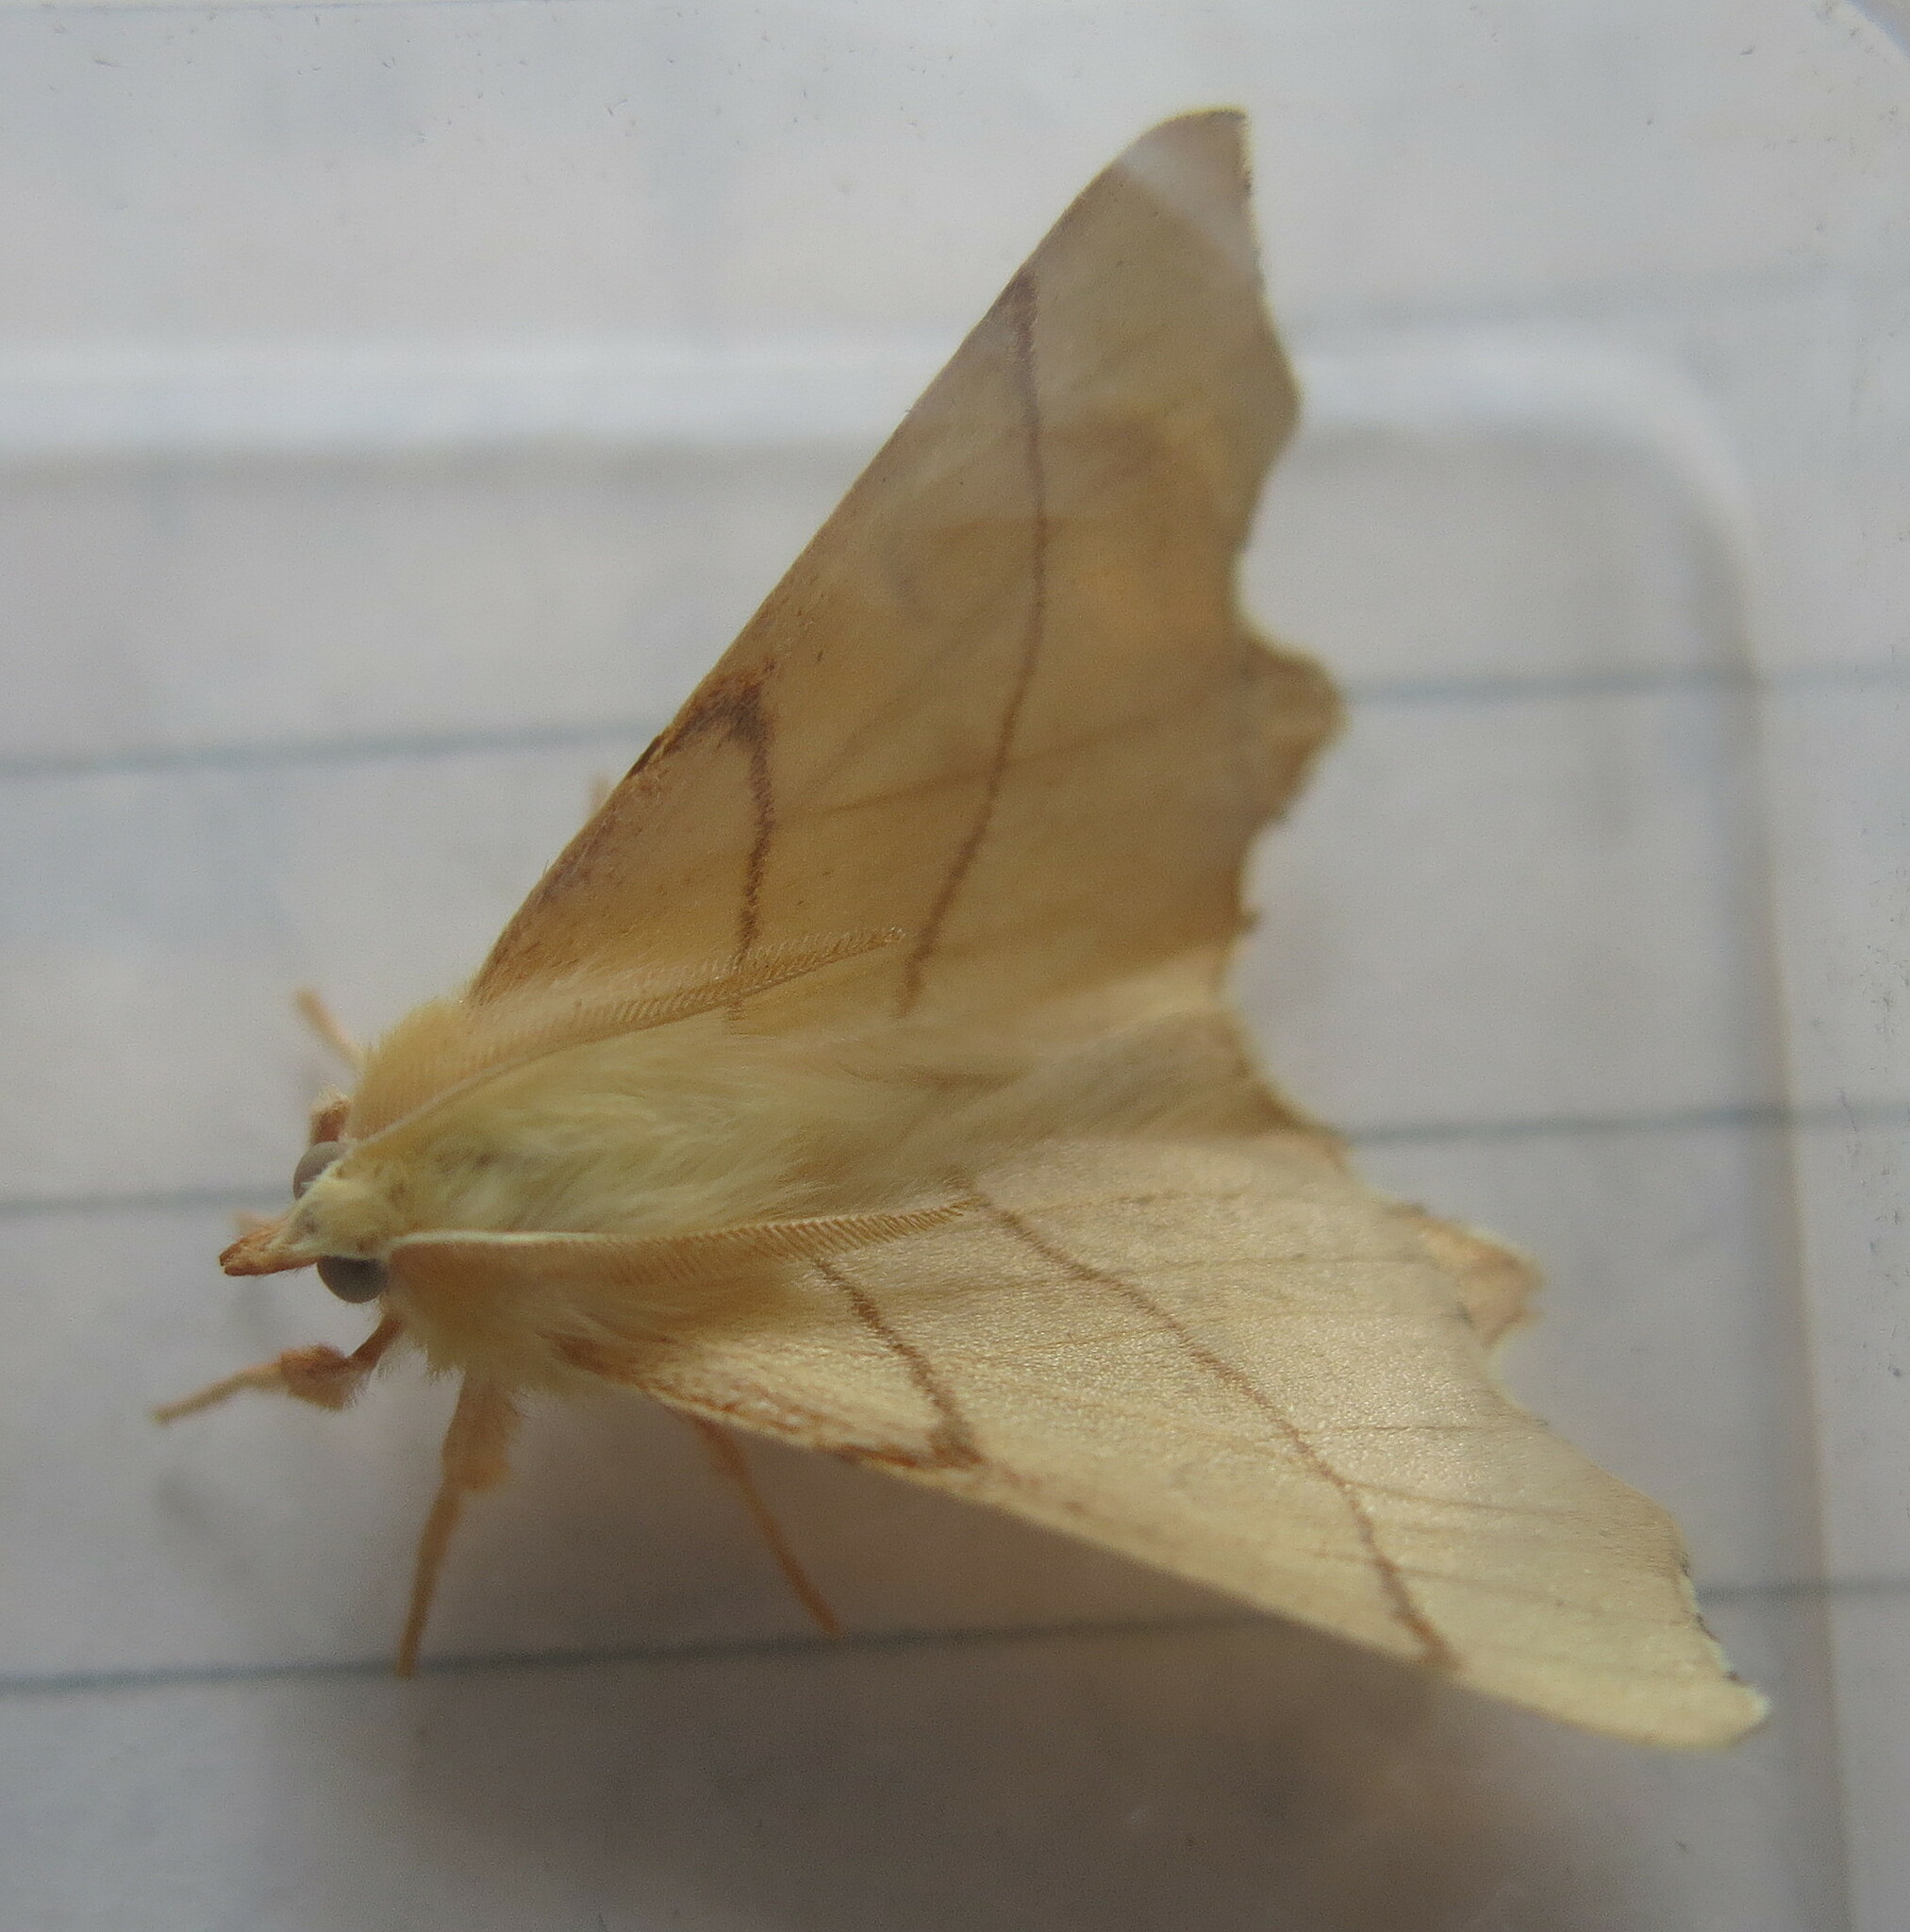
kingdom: Animalia
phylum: Arthropoda
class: Insecta
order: Lepidoptera
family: Geometridae
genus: Ennomos
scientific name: Ennomos erosaria
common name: September thorn
